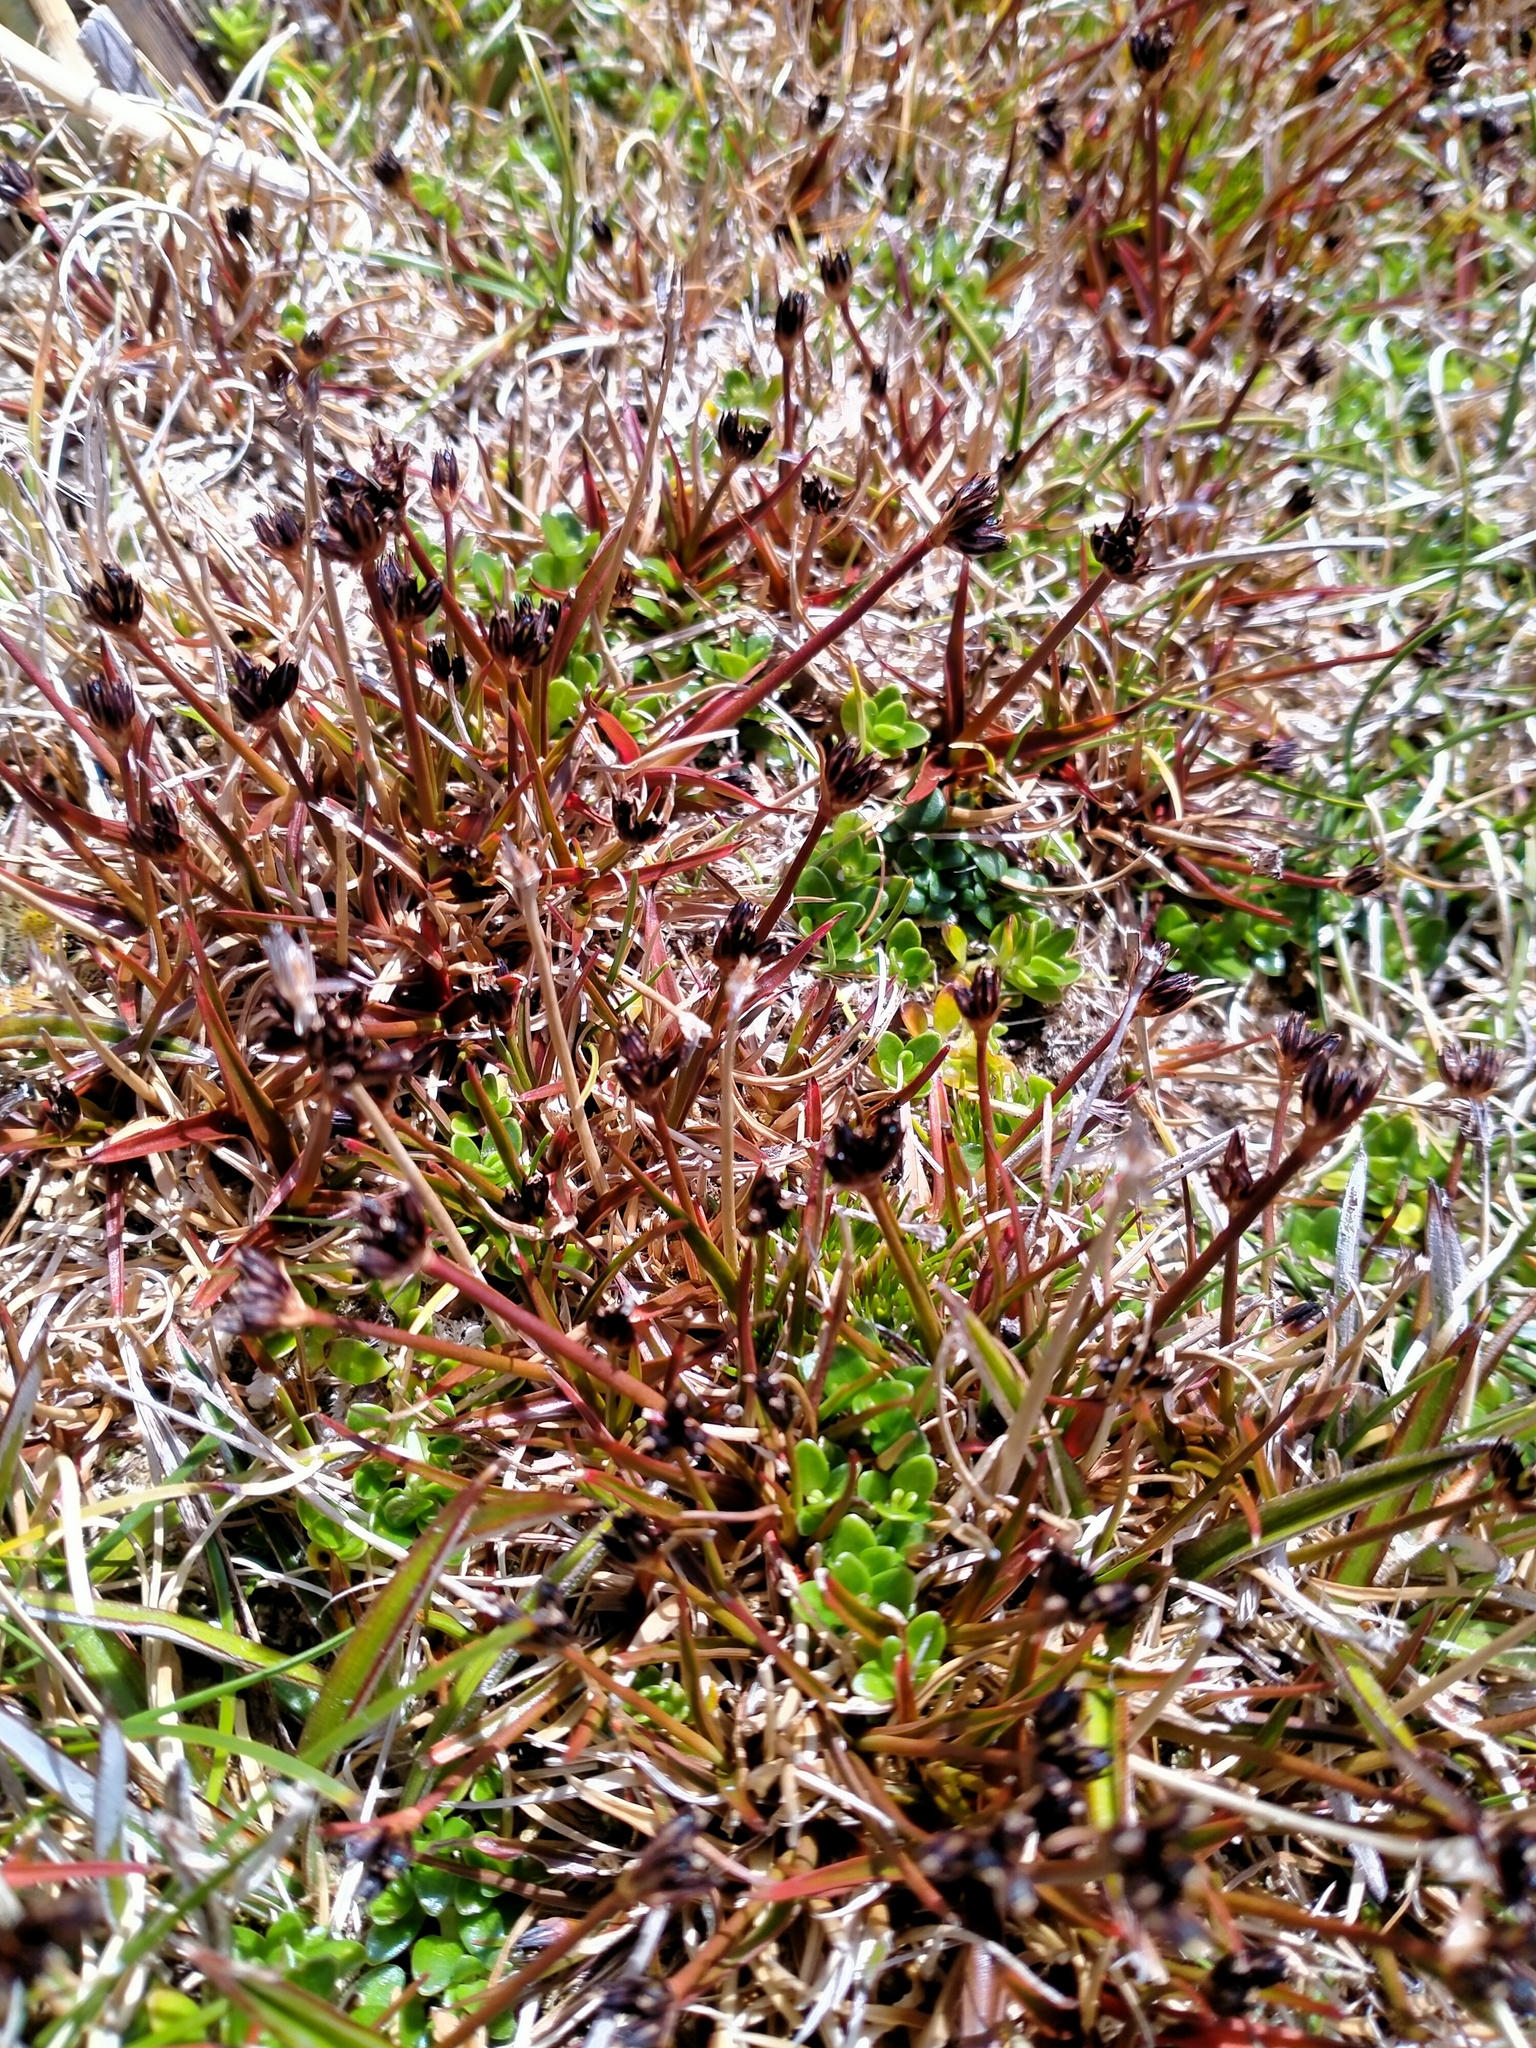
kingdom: Plantae
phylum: Tracheophyta
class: Liliopsida
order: Poales
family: Juncaceae
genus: Juncus
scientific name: Juncus antarcticus
